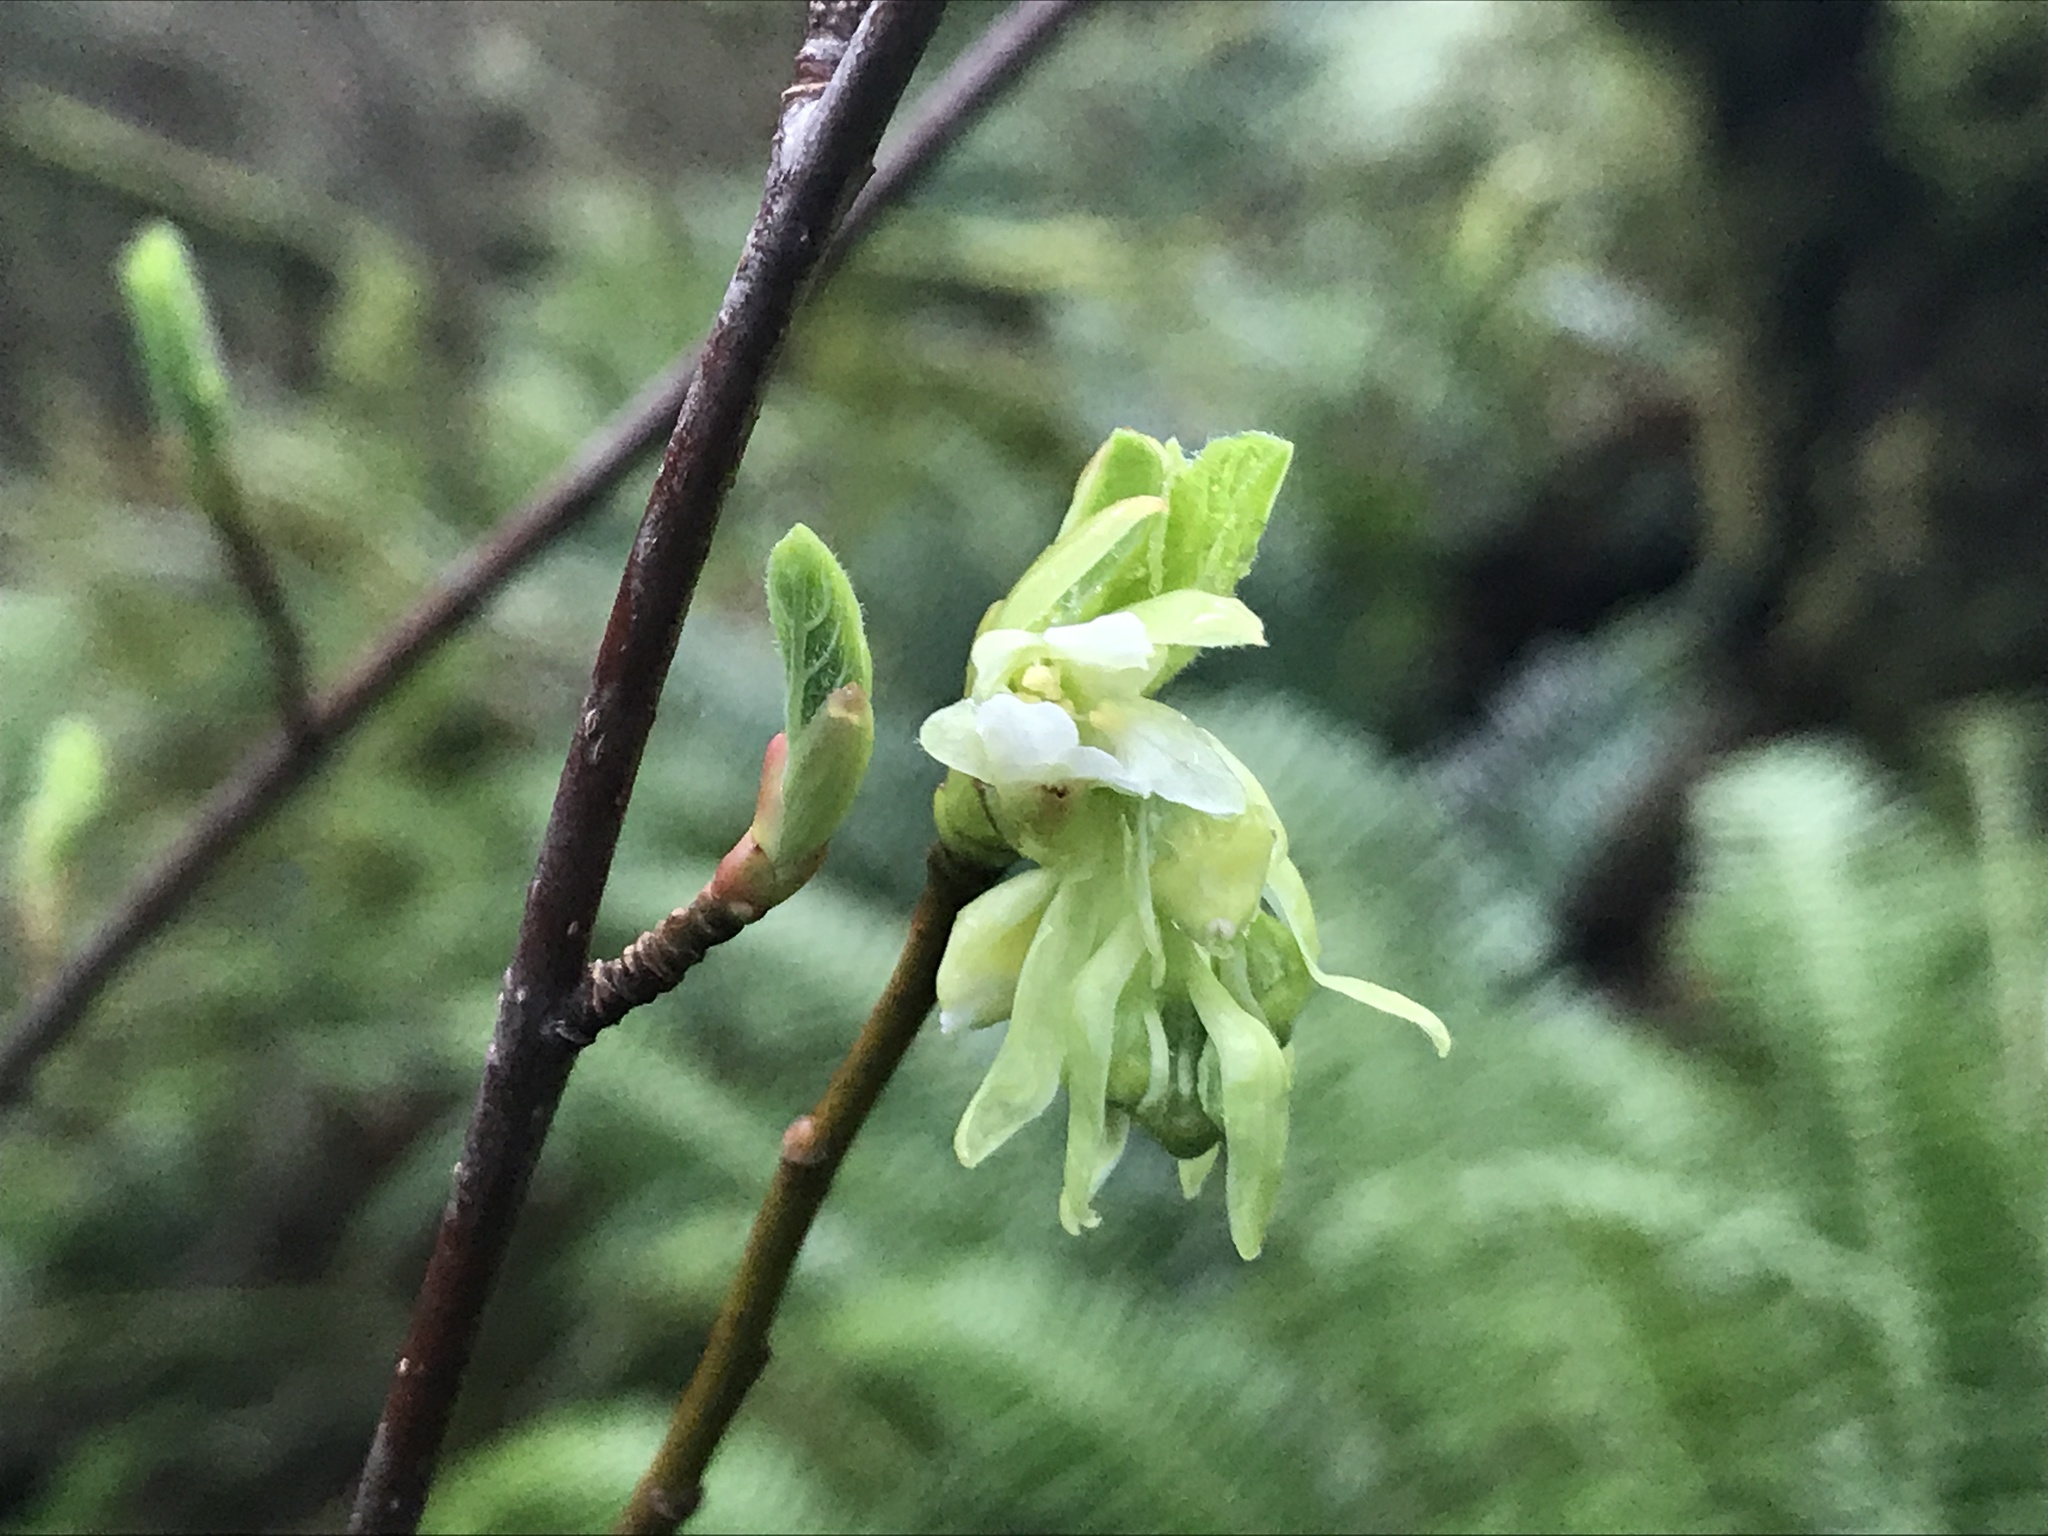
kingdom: Plantae
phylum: Tracheophyta
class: Magnoliopsida
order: Rosales
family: Rosaceae
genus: Oemleria
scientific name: Oemleria cerasiformis
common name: Osoberry
